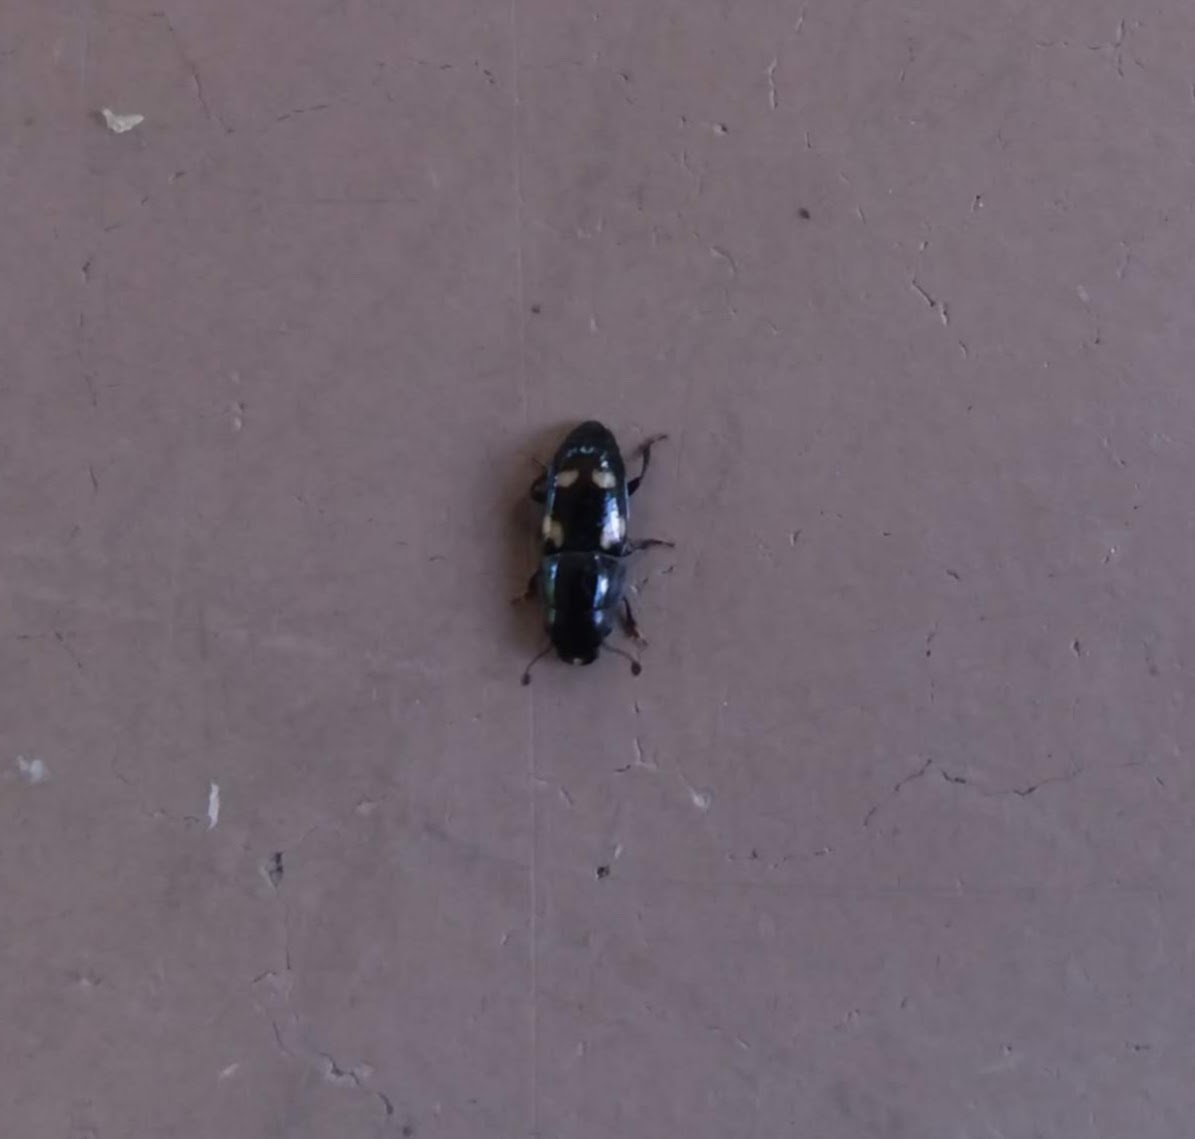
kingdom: Animalia
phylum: Arthropoda
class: Insecta
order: Coleoptera
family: Nitidulidae
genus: Glischrochilus
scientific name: Glischrochilus quadrisignatus
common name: Picnic beetle
